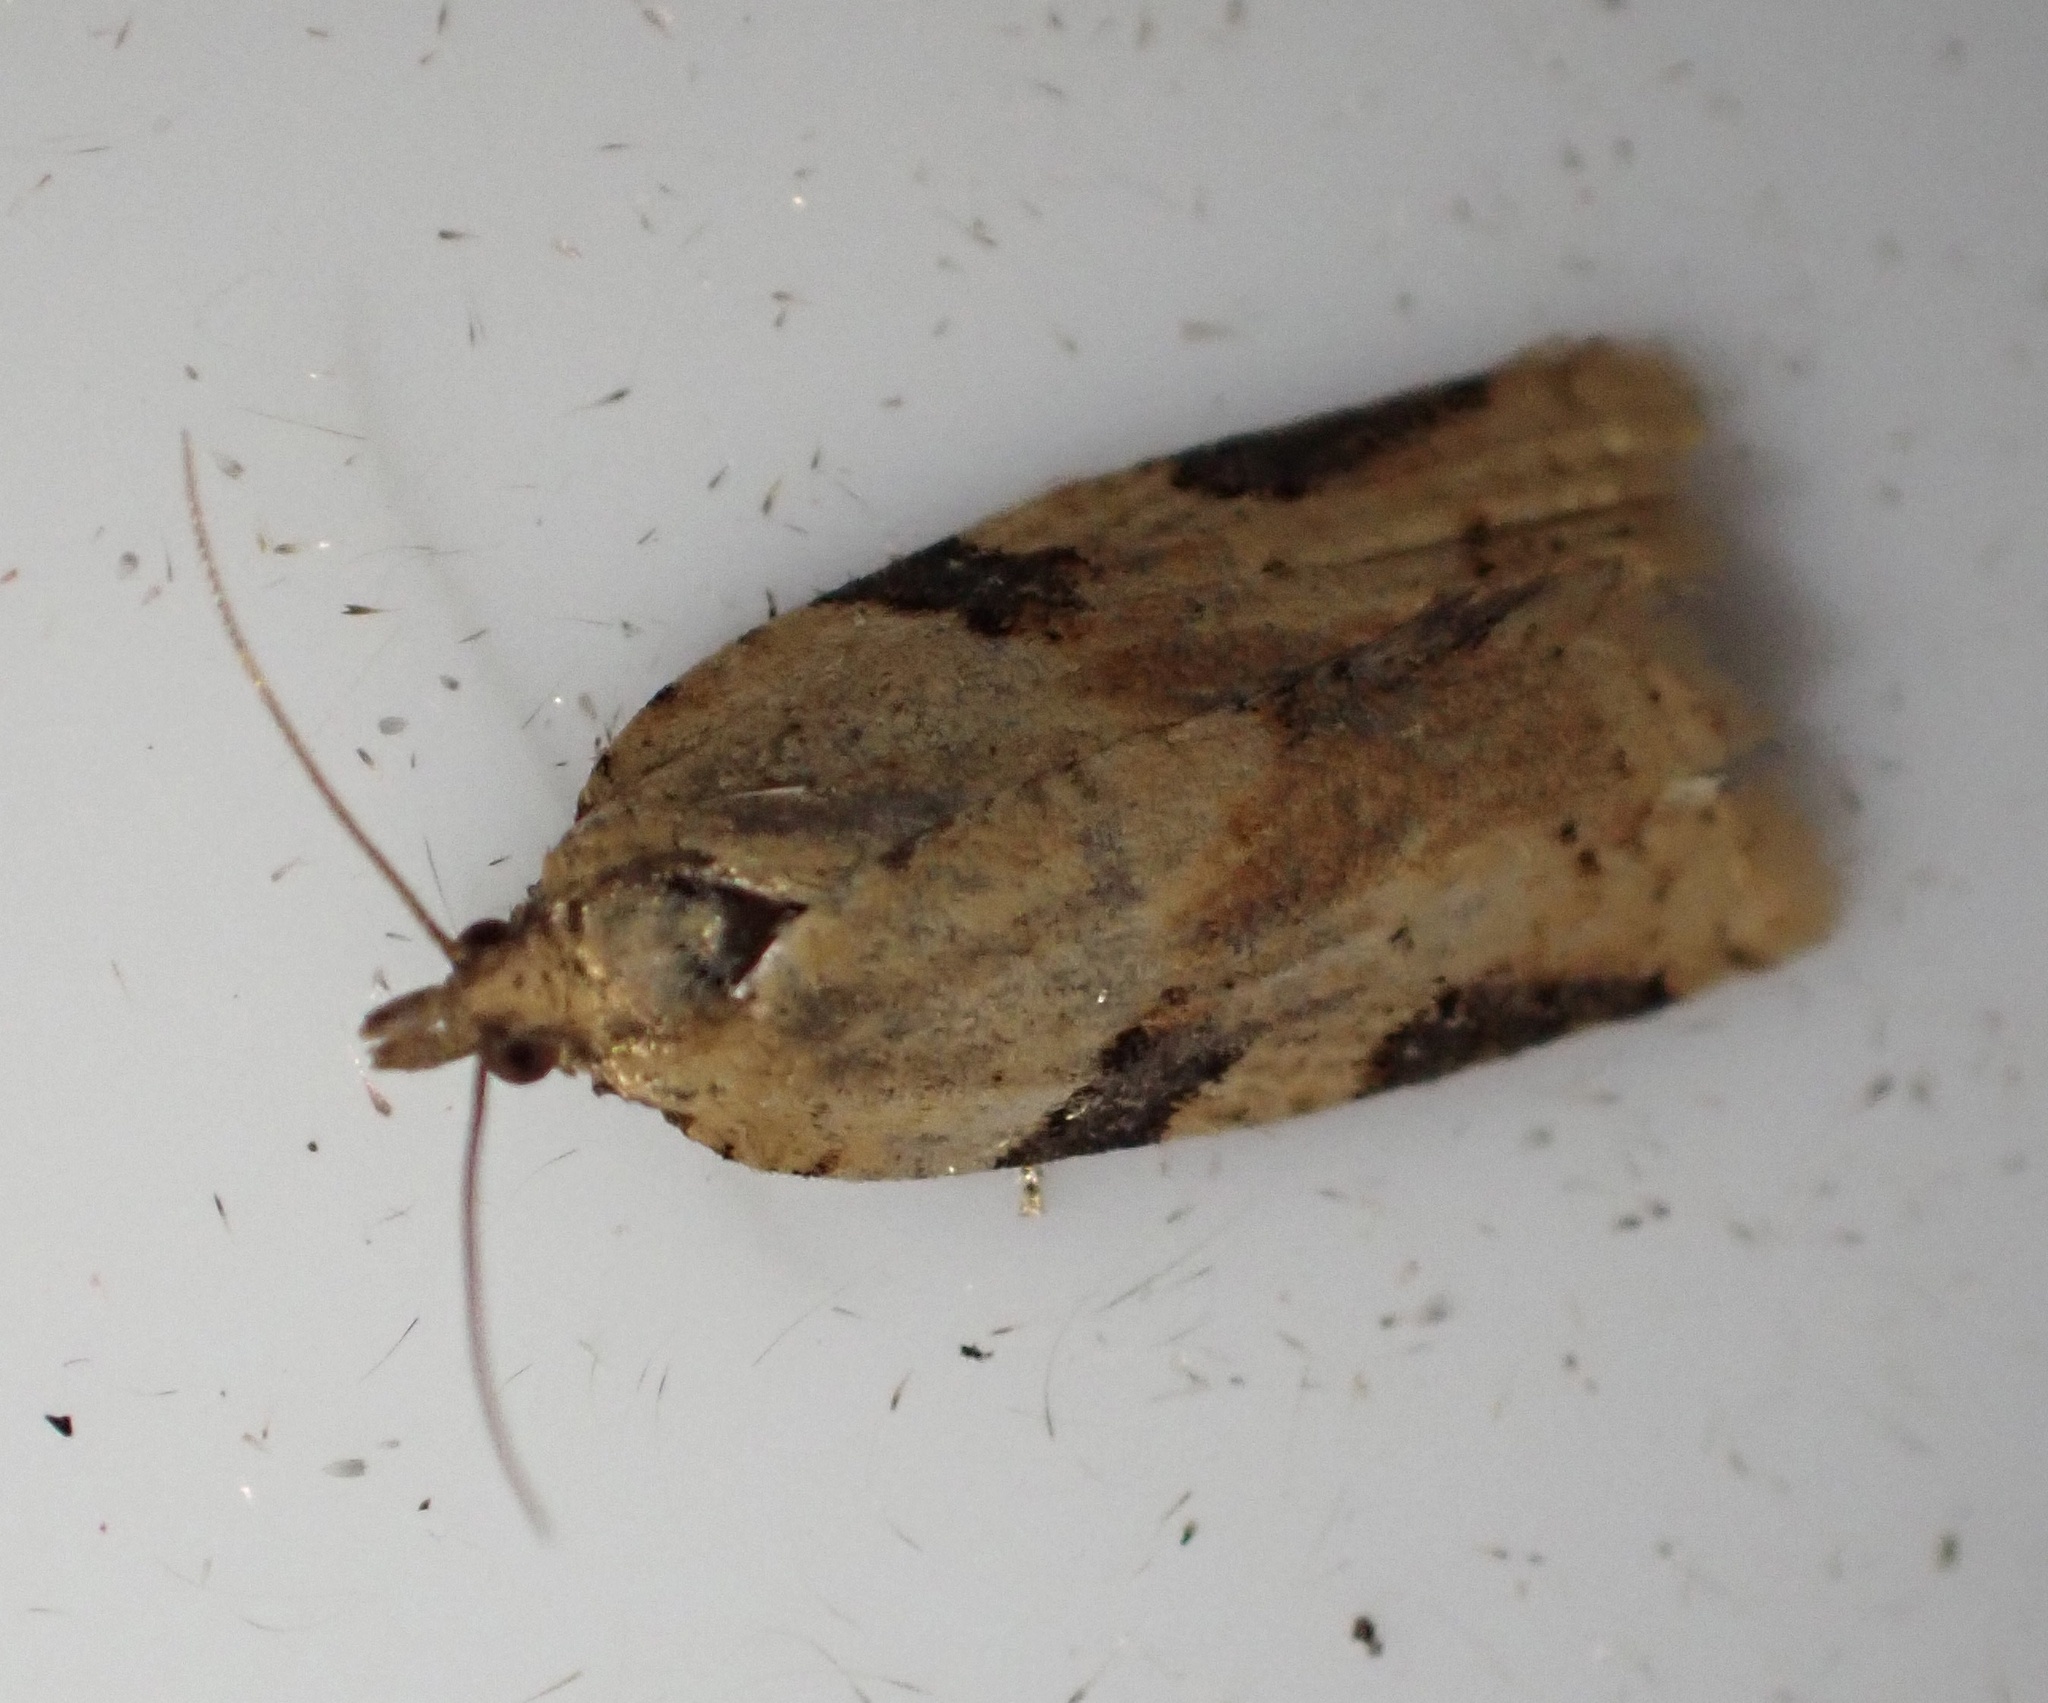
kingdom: Animalia
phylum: Arthropoda
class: Insecta
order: Lepidoptera
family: Tortricidae
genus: Clepsis
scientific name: Clepsis spectrana
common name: Cyclamen tortrix
